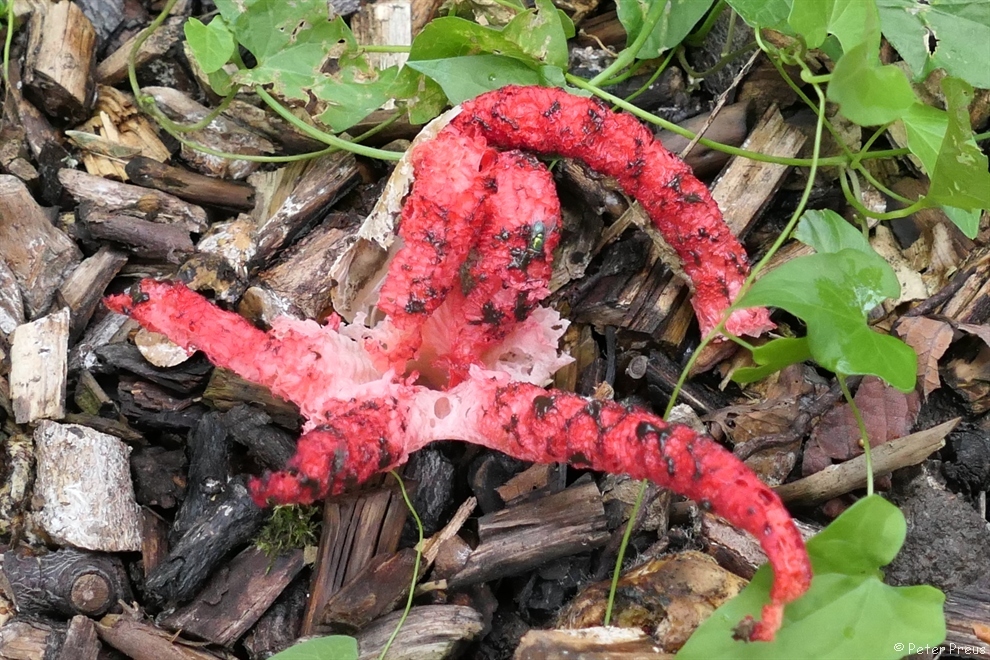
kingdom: Fungi
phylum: Basidiomycota
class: Agaricomycetes
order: Phallales
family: Phallaceae
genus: Clathrus
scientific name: Clathrus archeri
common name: Devil's fingers
